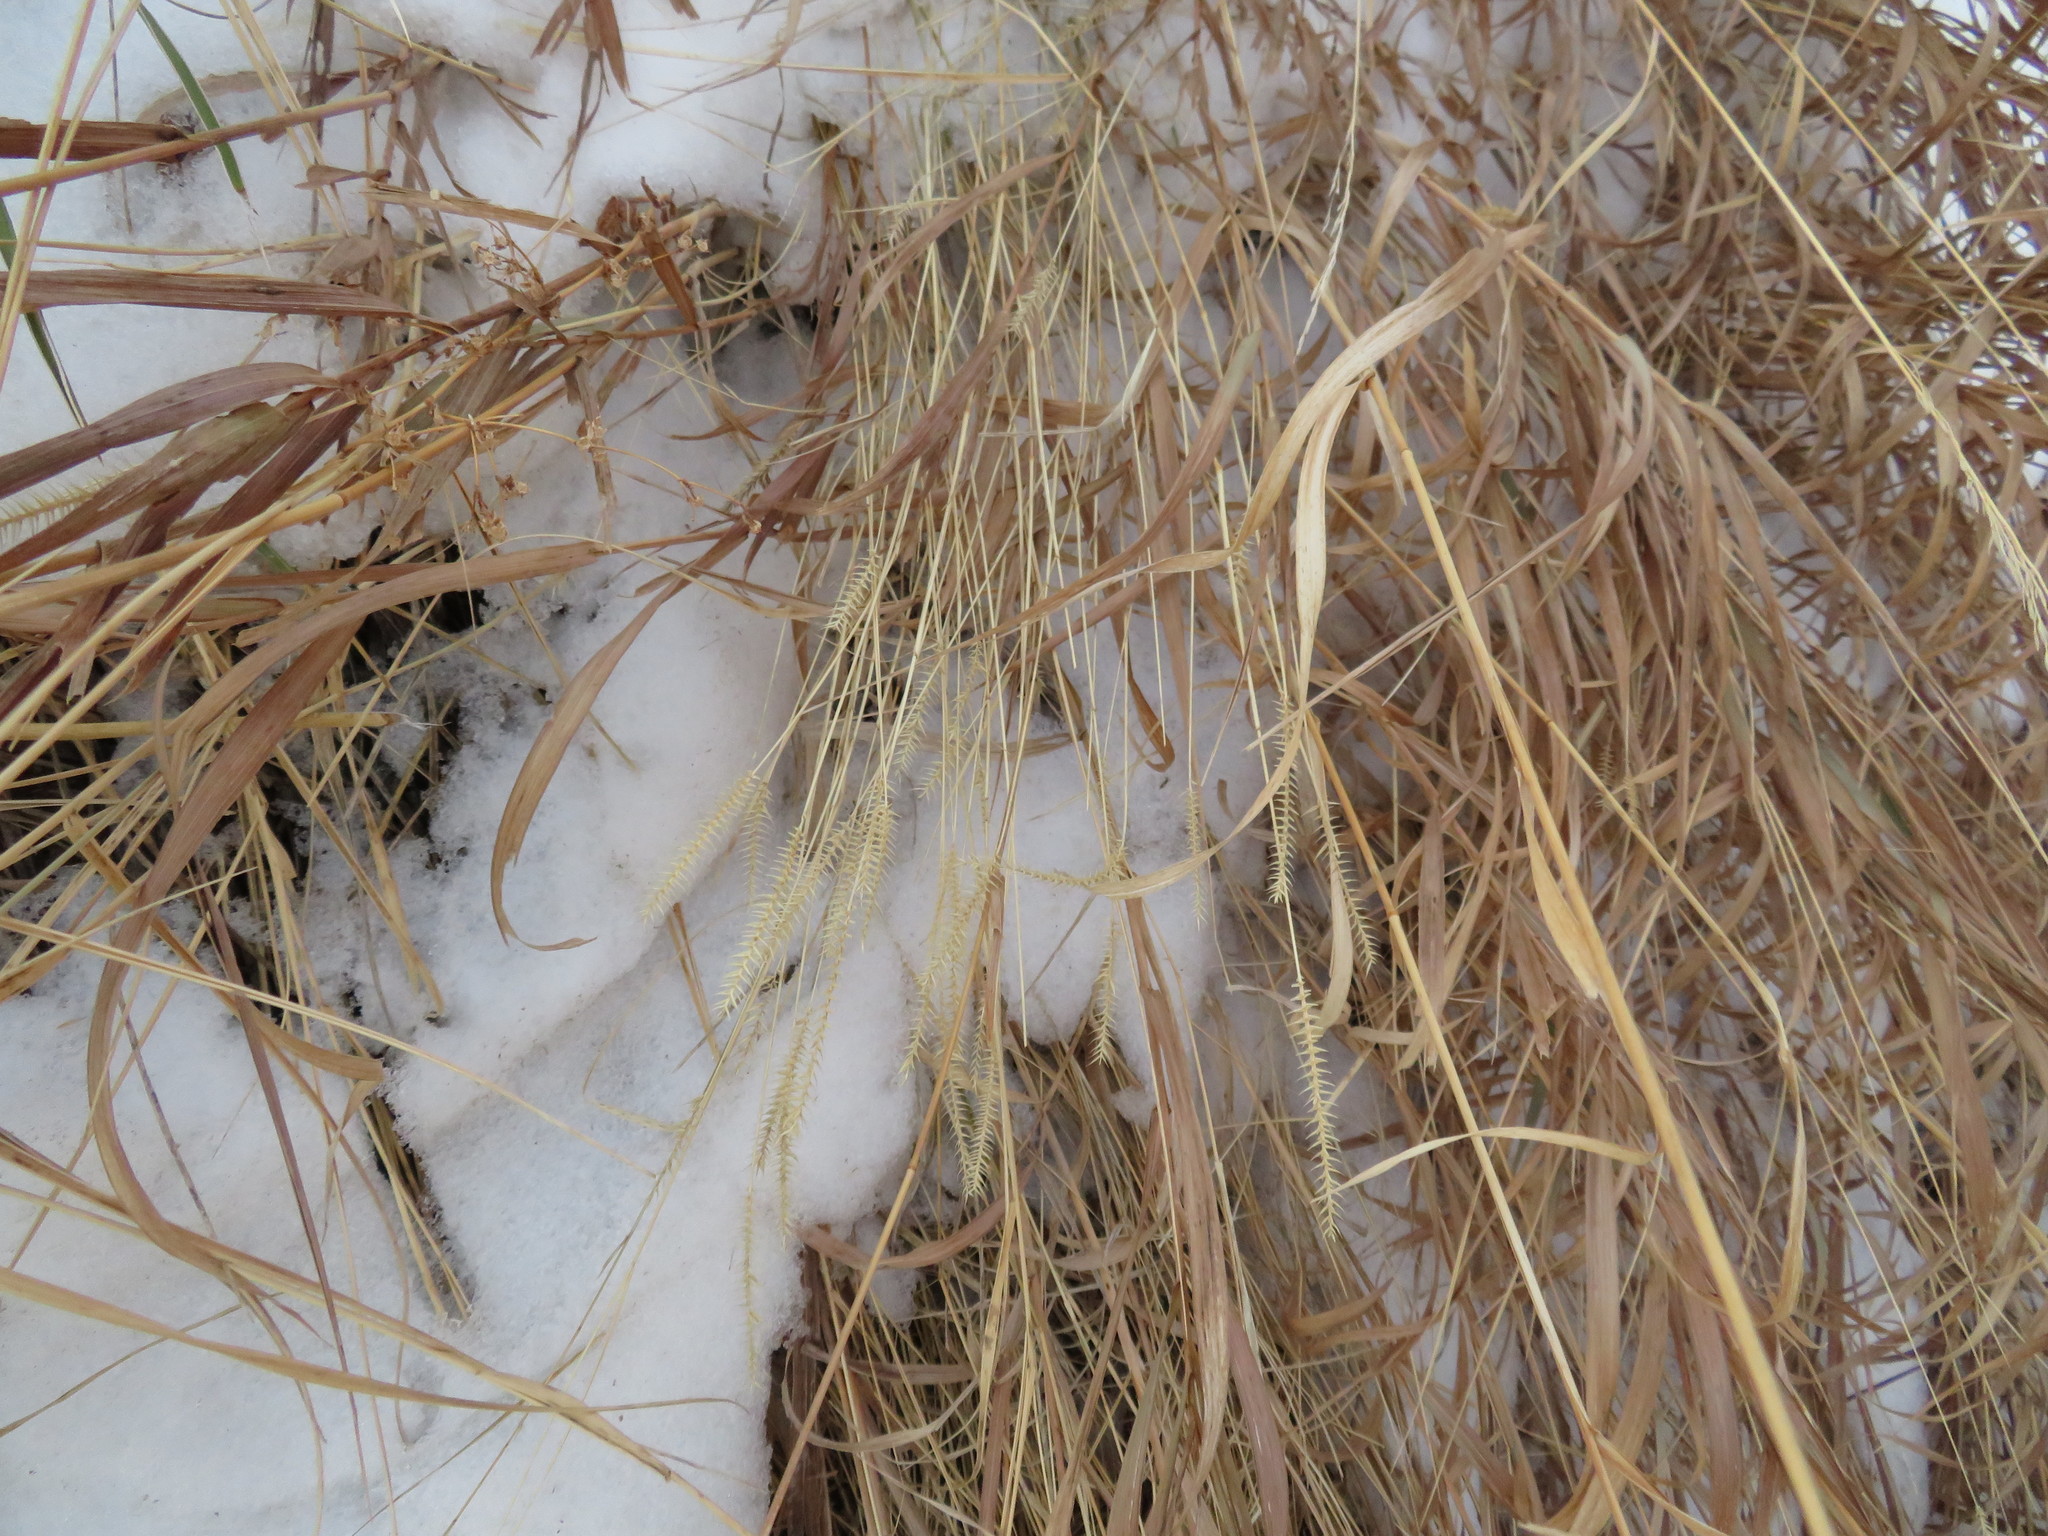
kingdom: Plantae
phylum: Tracheophyta
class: Liliopsida
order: Poales
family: Poaceae
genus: Agropyron
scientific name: Agropyron cristatum
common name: Crested wheatgrass
